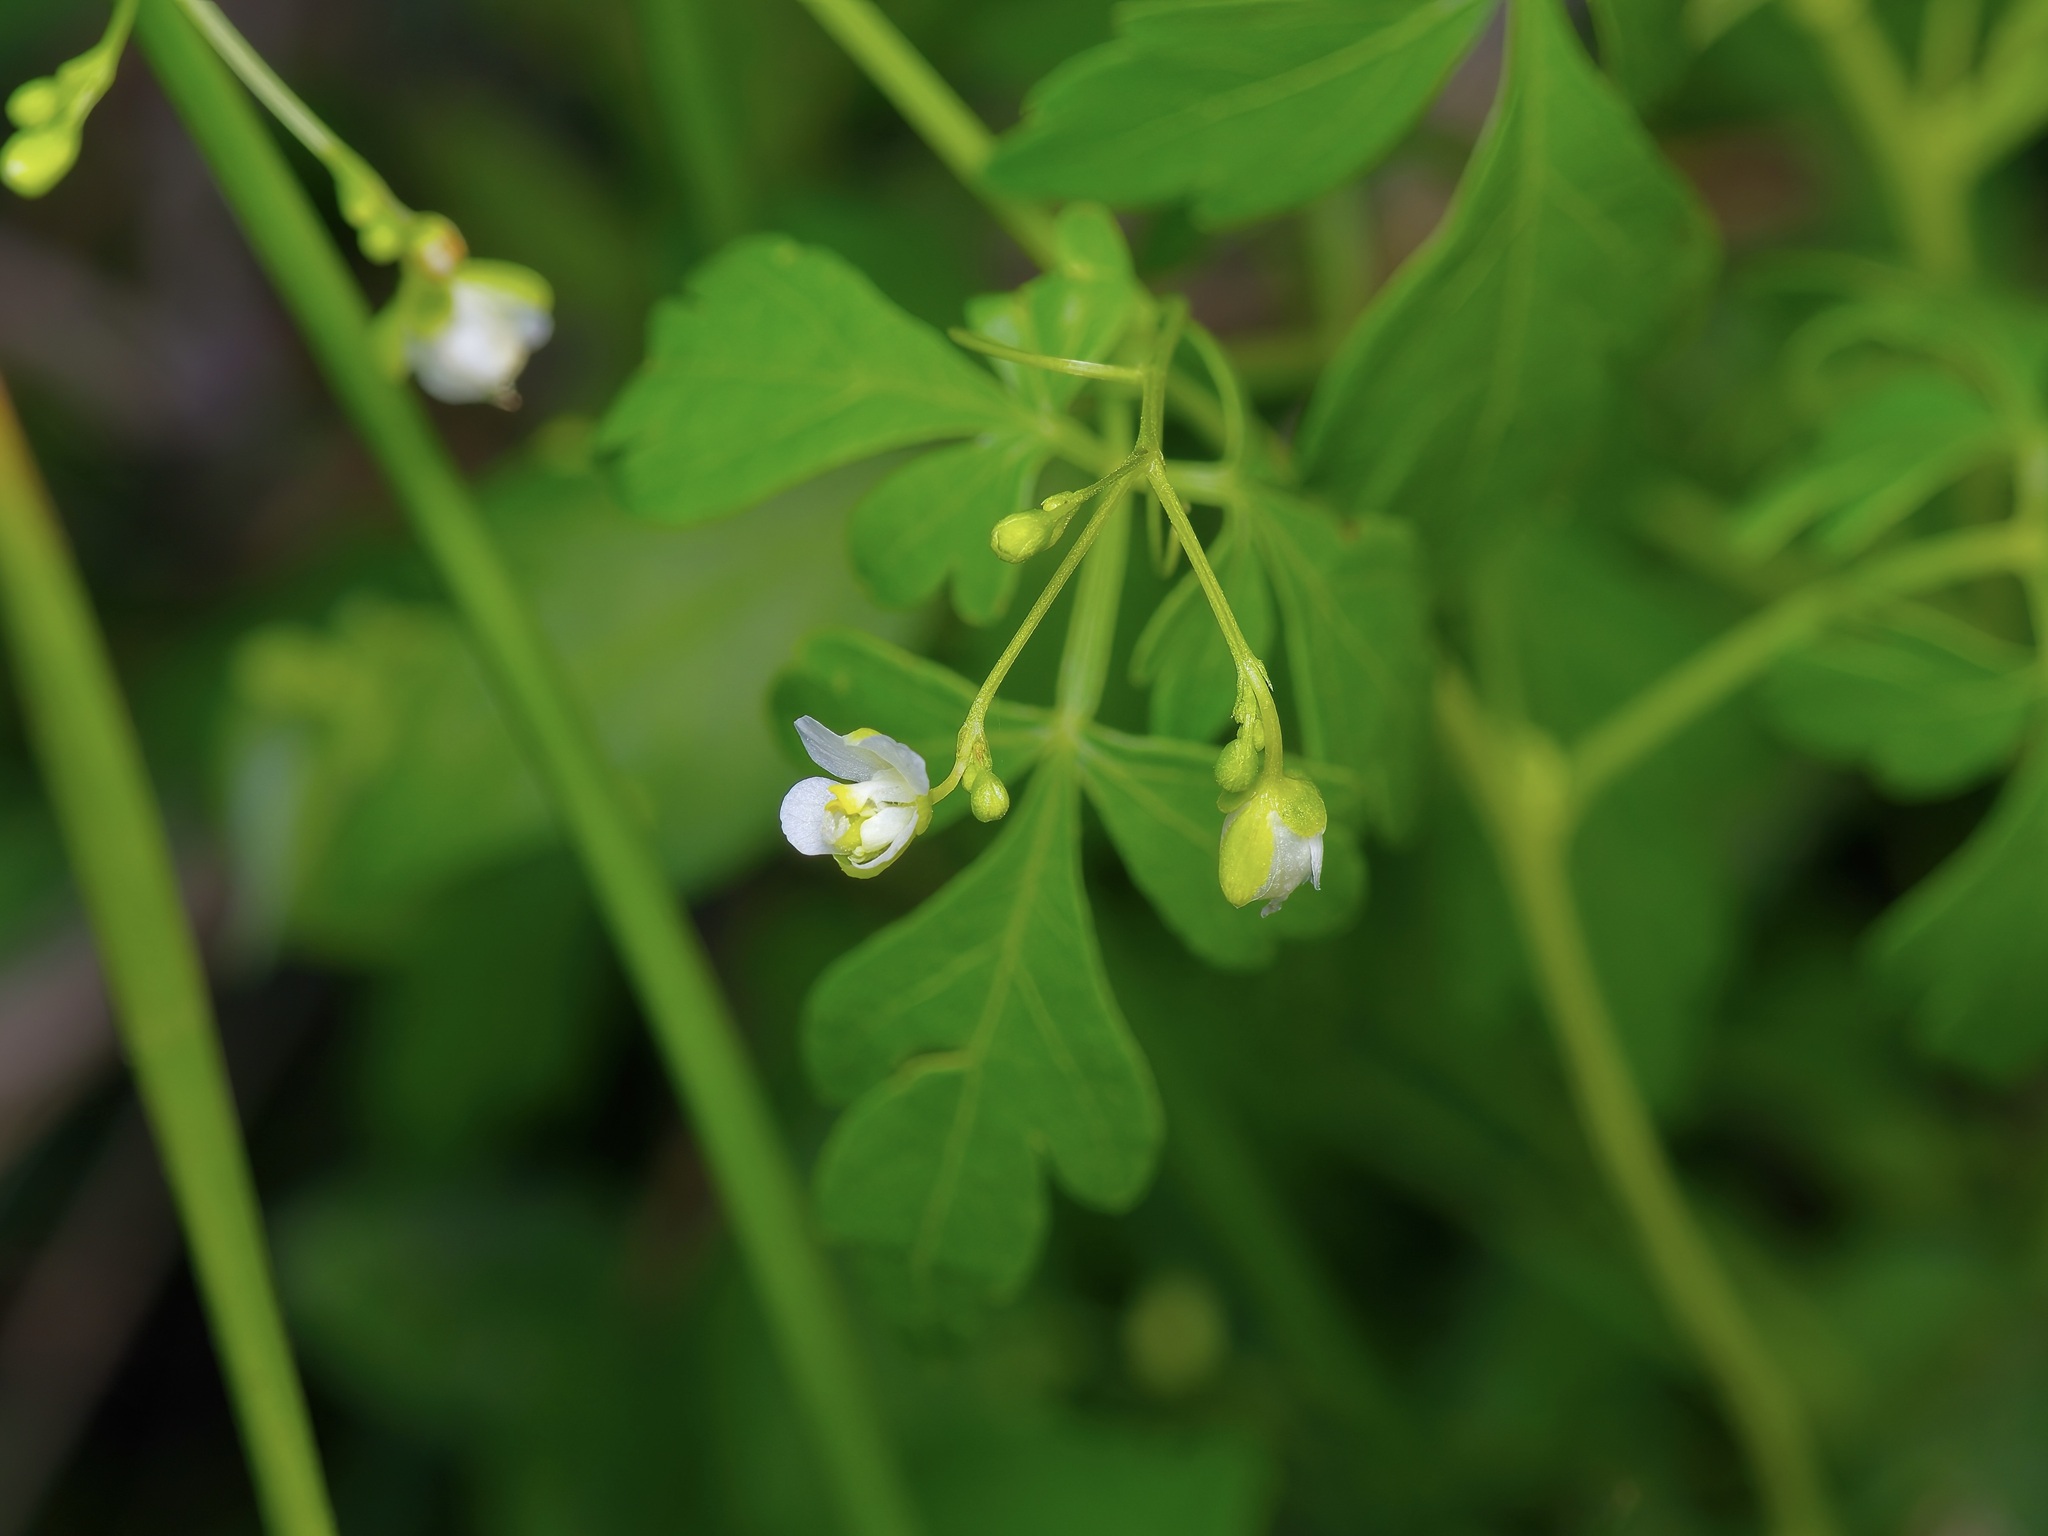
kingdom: Plantae
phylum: Tracheophyta
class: Magnoliopsida
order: Sapindales
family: Sapindaceae
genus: Cardiospermum
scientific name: Cardiospermum halicacabum
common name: Balloon vine
